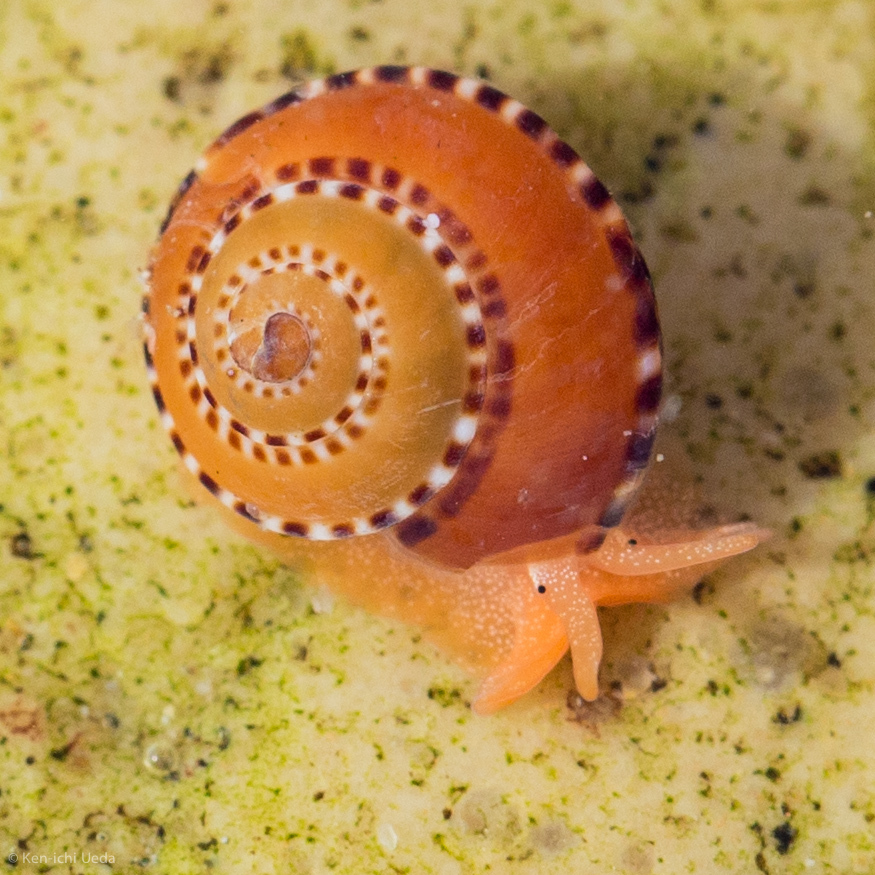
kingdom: Animalia
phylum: Mollusca
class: Gastropoda
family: Architectonicidae
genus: Philippia
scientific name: Philippia lutea
